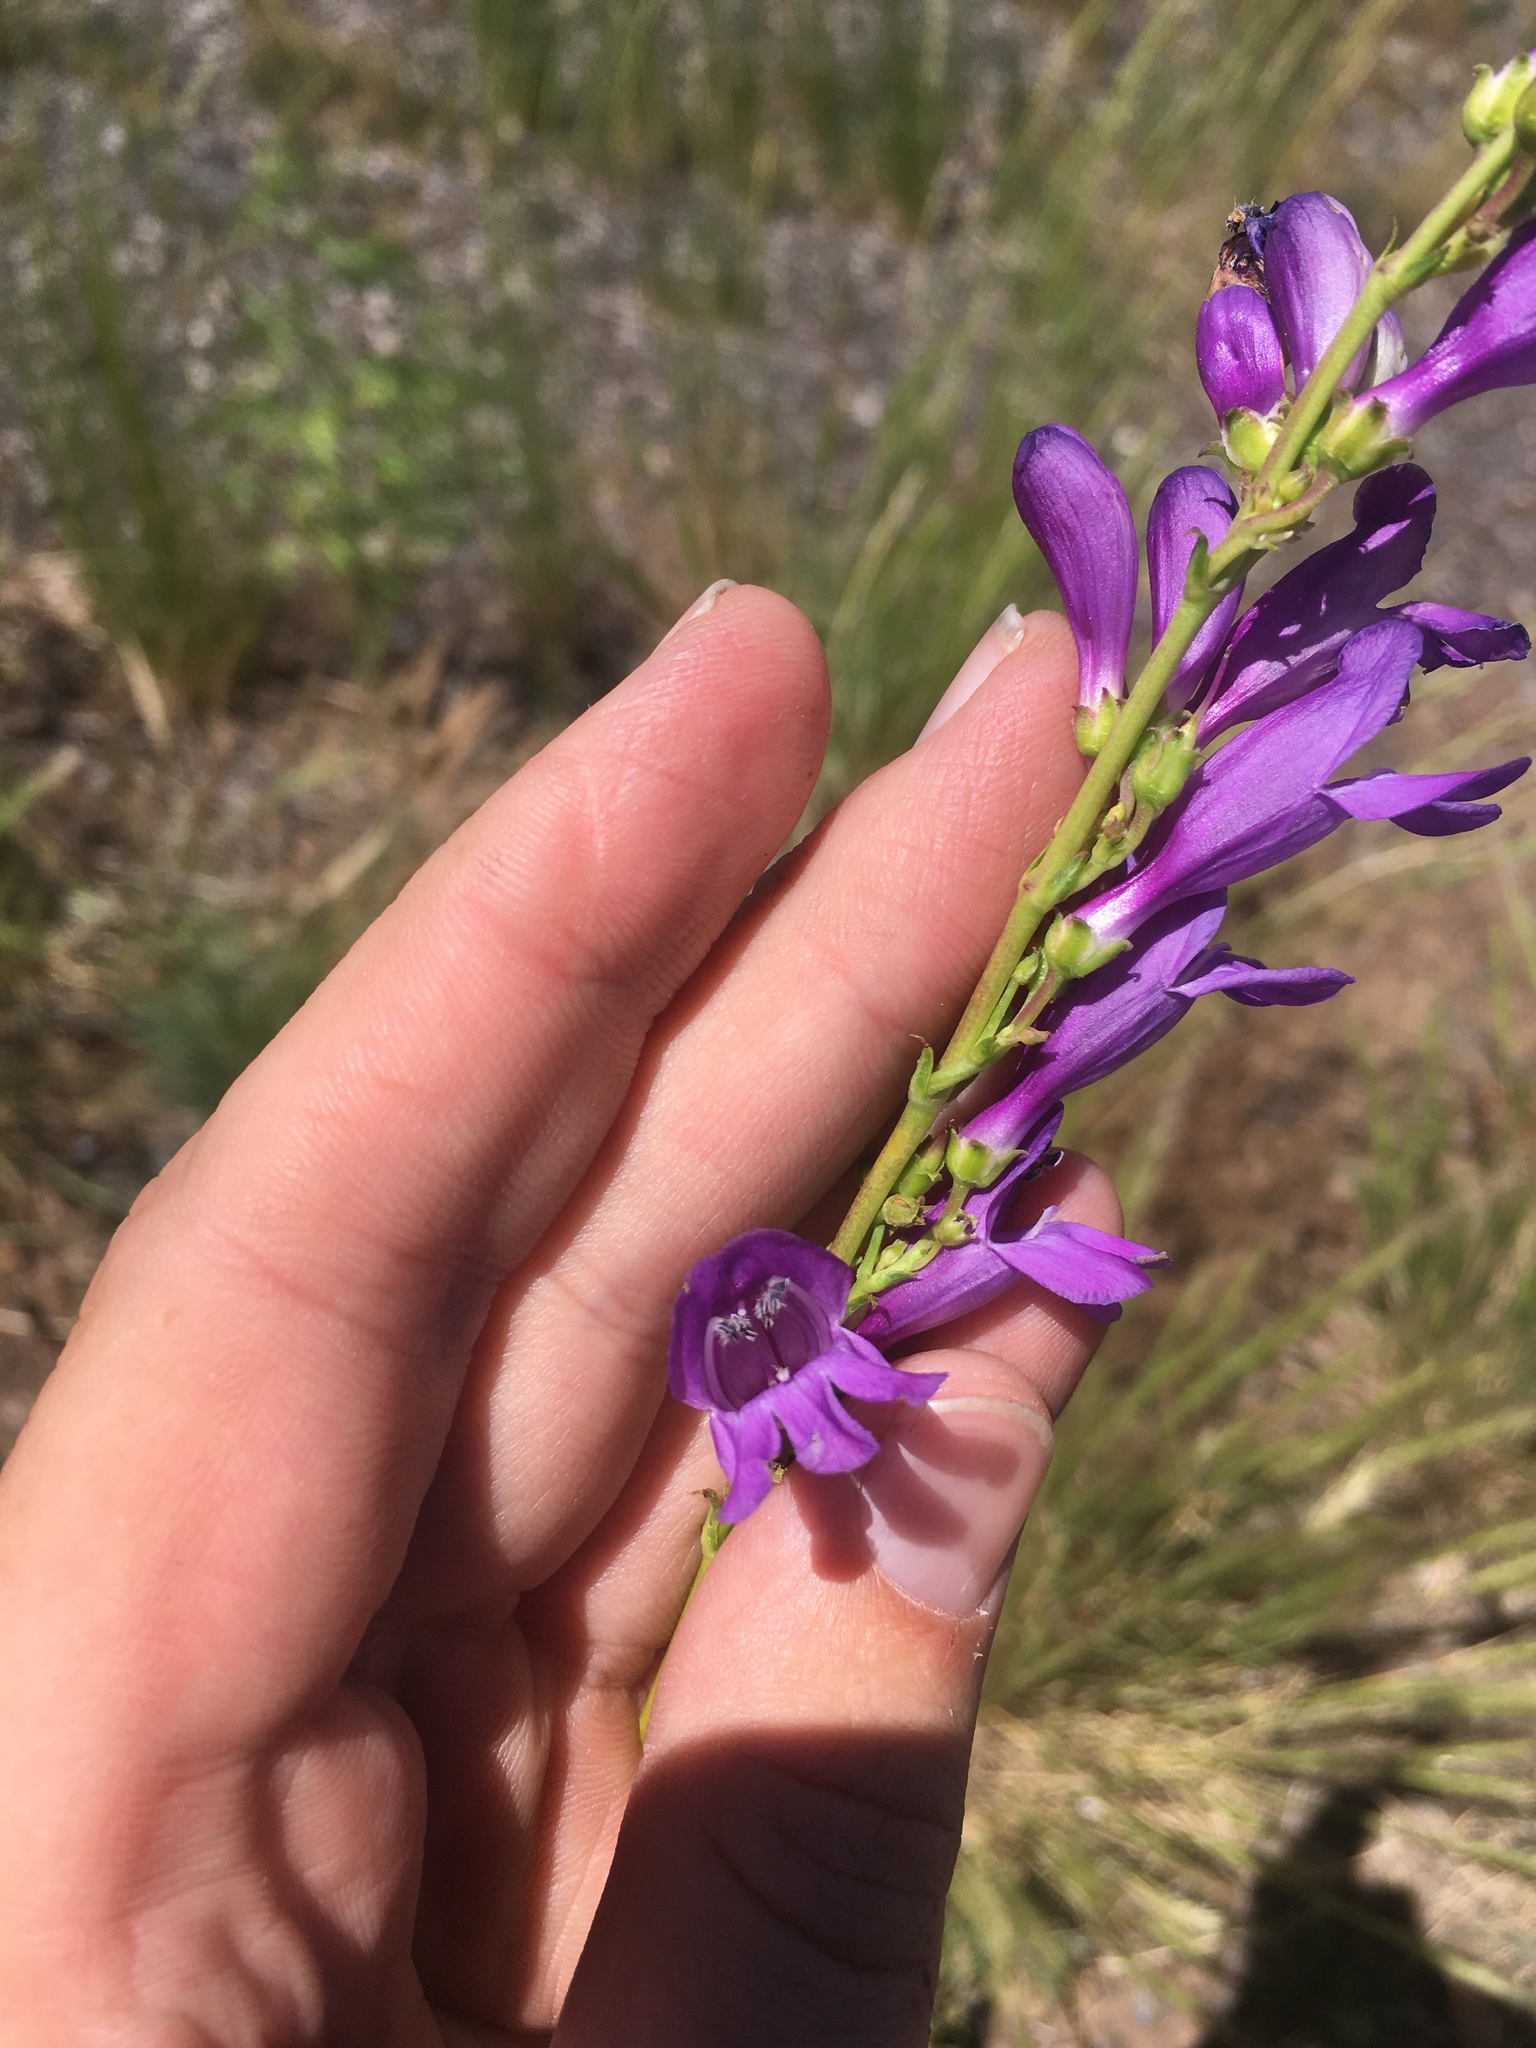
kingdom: Plantae
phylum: Tracheophyta
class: Magnoliopsida
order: Lamiales
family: Plantaginaceae
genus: Penstemon
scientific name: Penstemon strictus
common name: Rocky mountain penstemon
